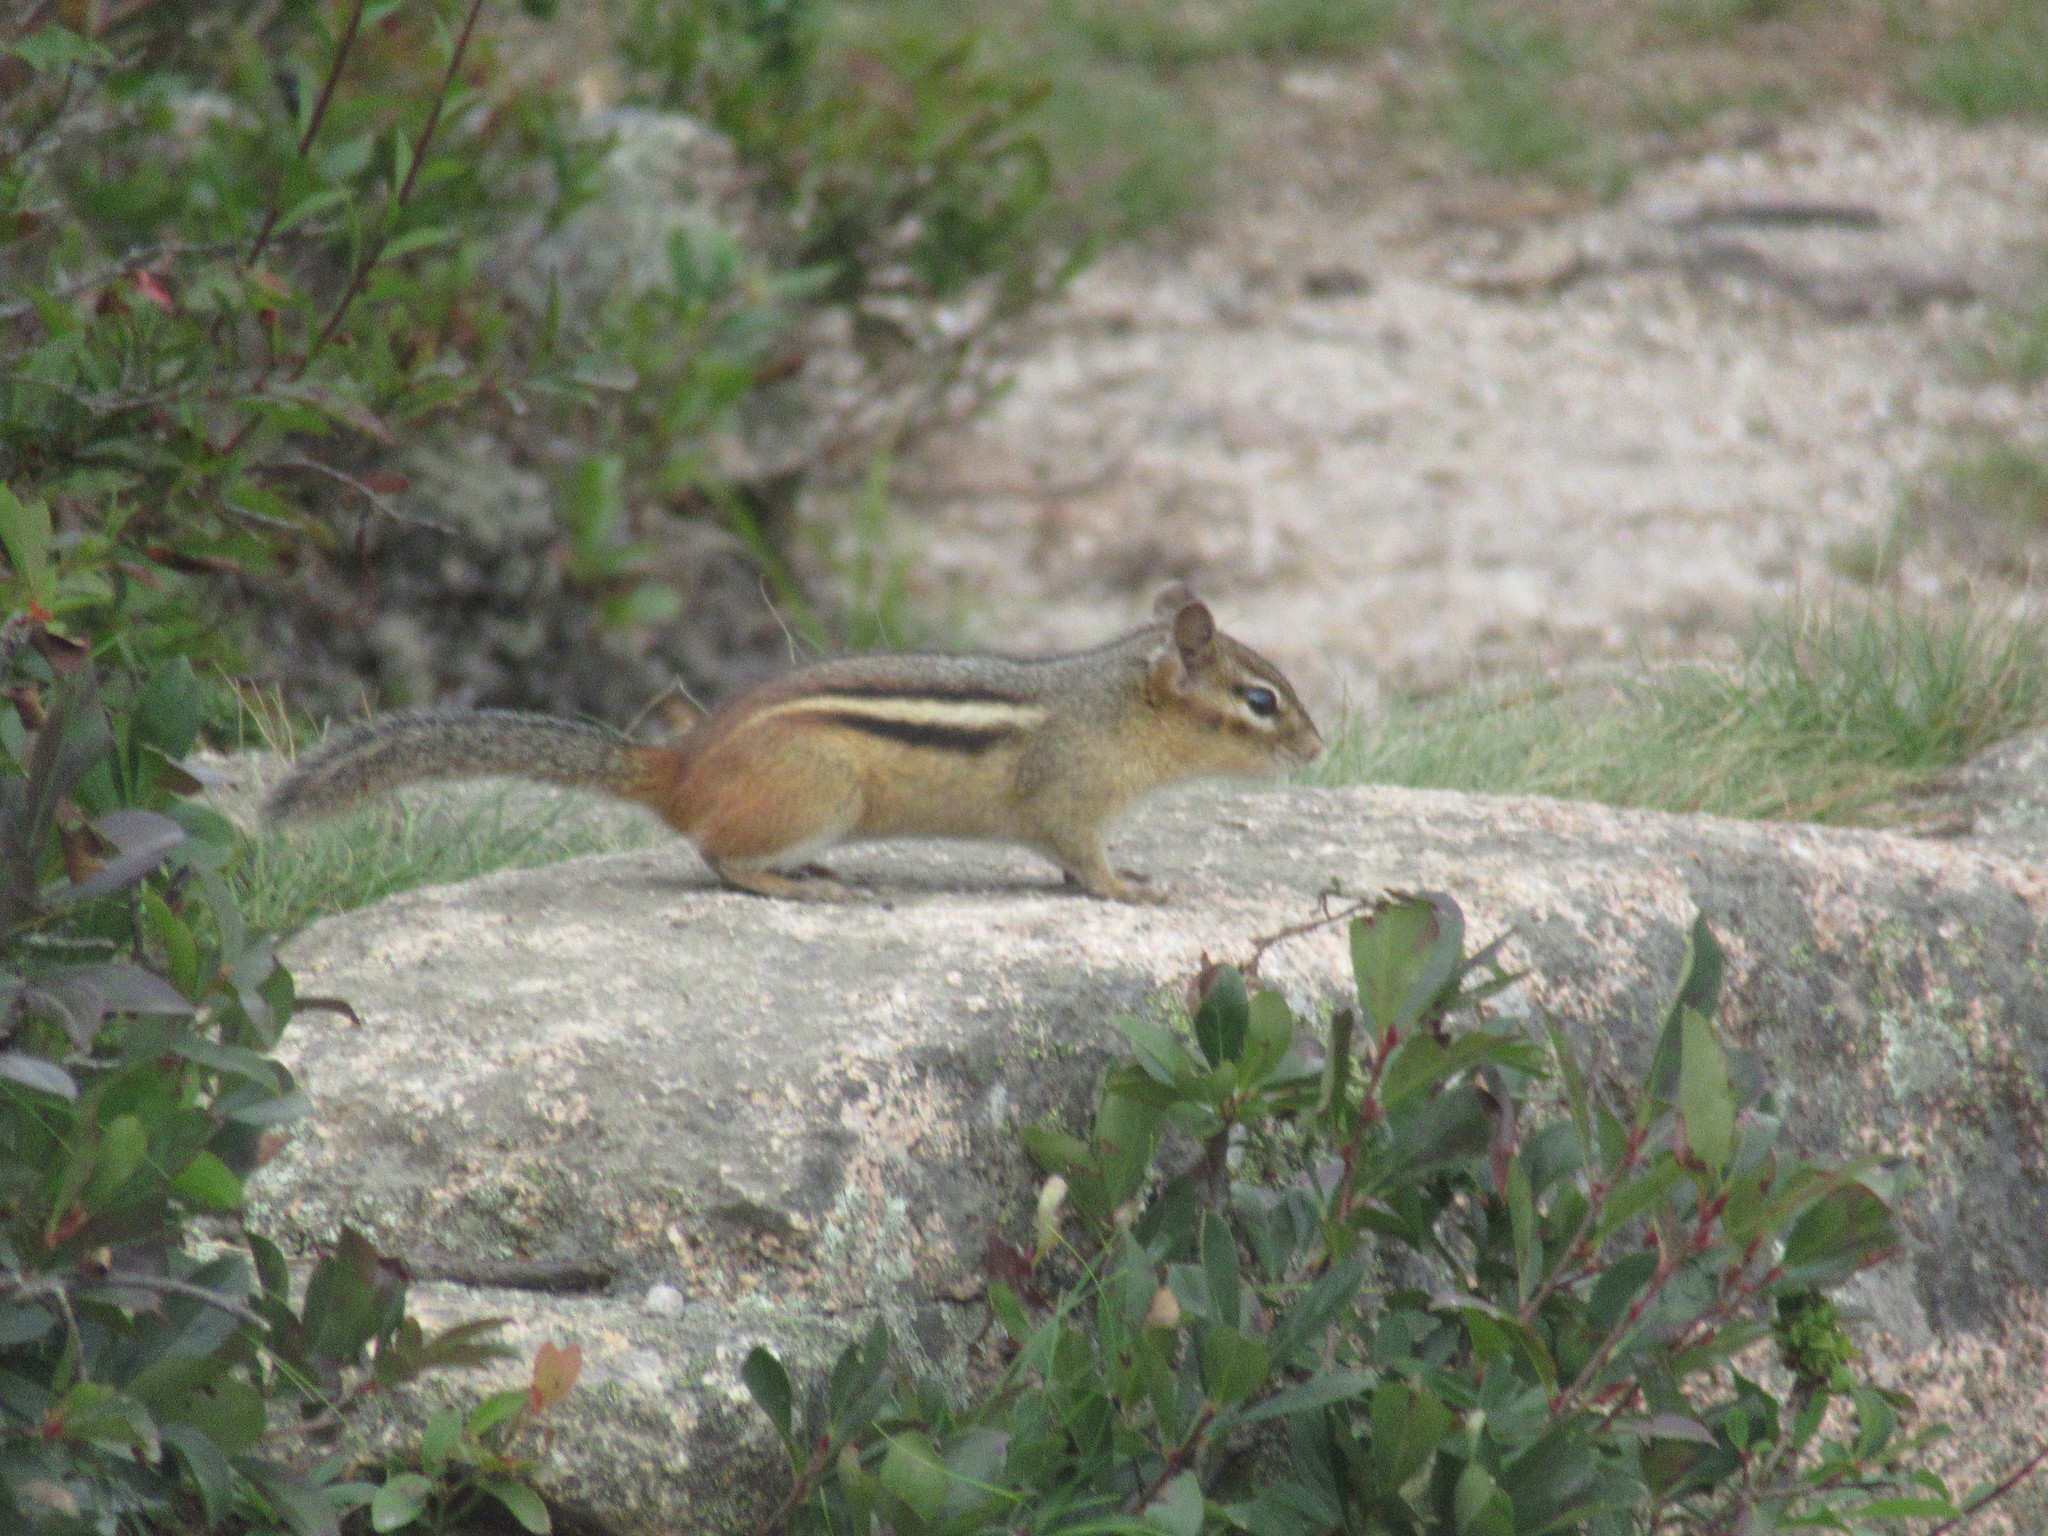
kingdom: Animalia
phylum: Chordata
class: Mammalia
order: Rodentia
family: Sciuridae
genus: Tamias
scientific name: Tamias striatus
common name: Eastern chipmunk
